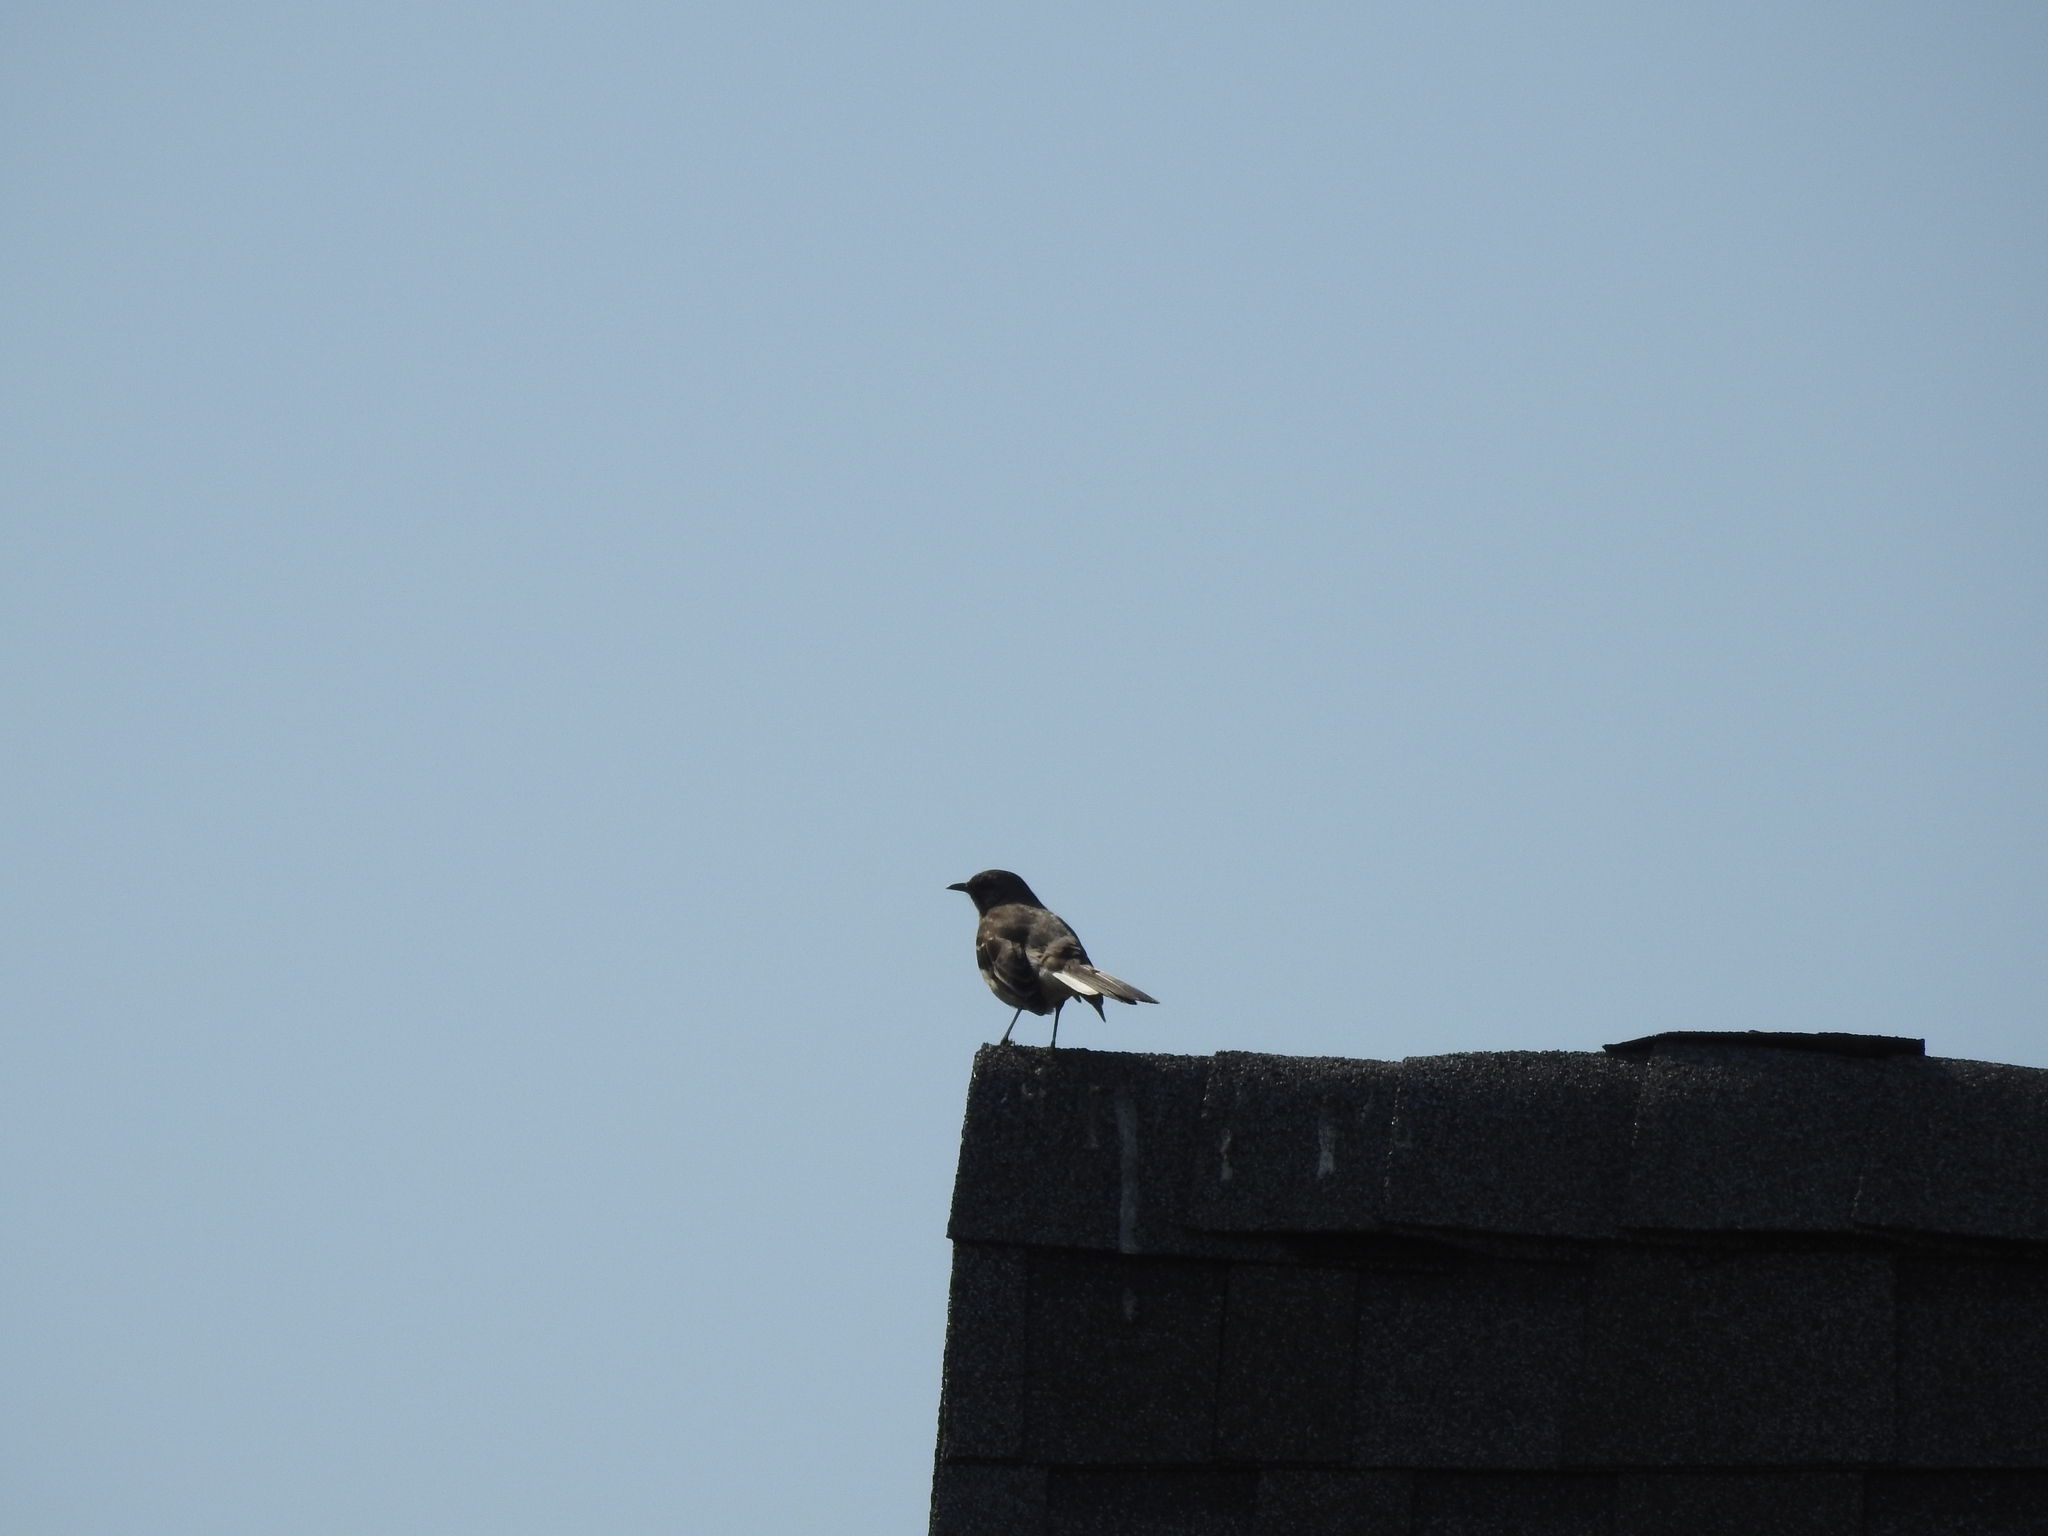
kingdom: Animalia
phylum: Chordata
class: Aves
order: Passeriformes
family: Mimidae
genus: Mimus
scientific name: Mimus polyglottos
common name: Northern mockingbird
